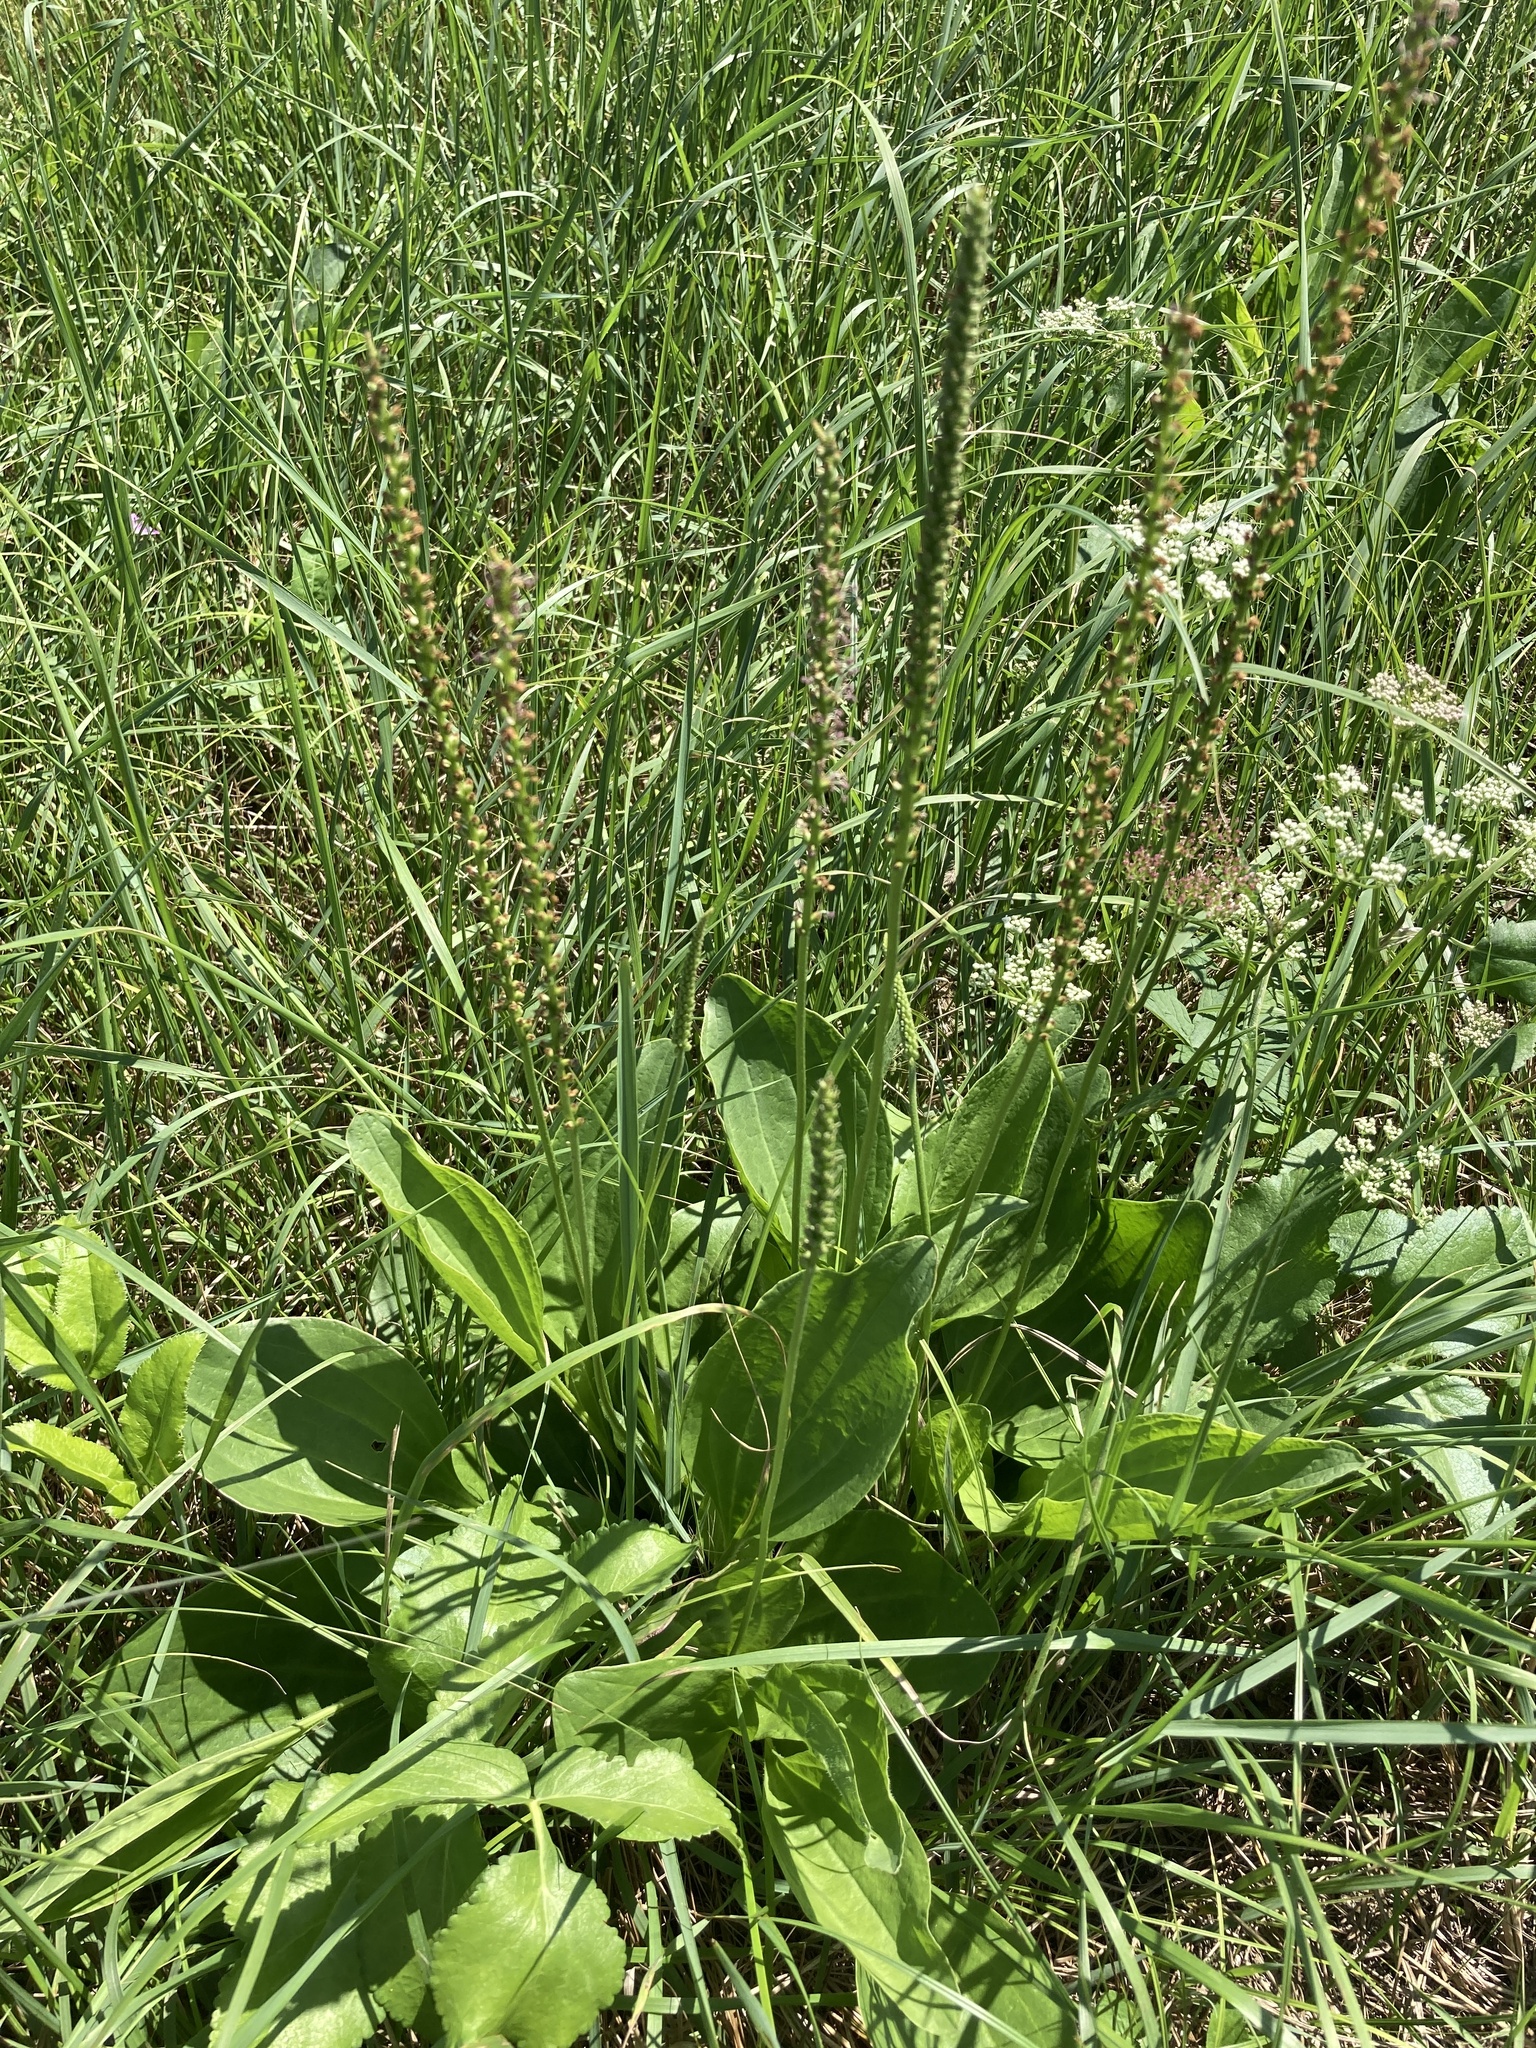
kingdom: Plantae
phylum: Tracheophyta
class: Magnoliopsida
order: Lamiales
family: Plantaginaceae
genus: Plantago
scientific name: Plantago cornuti
